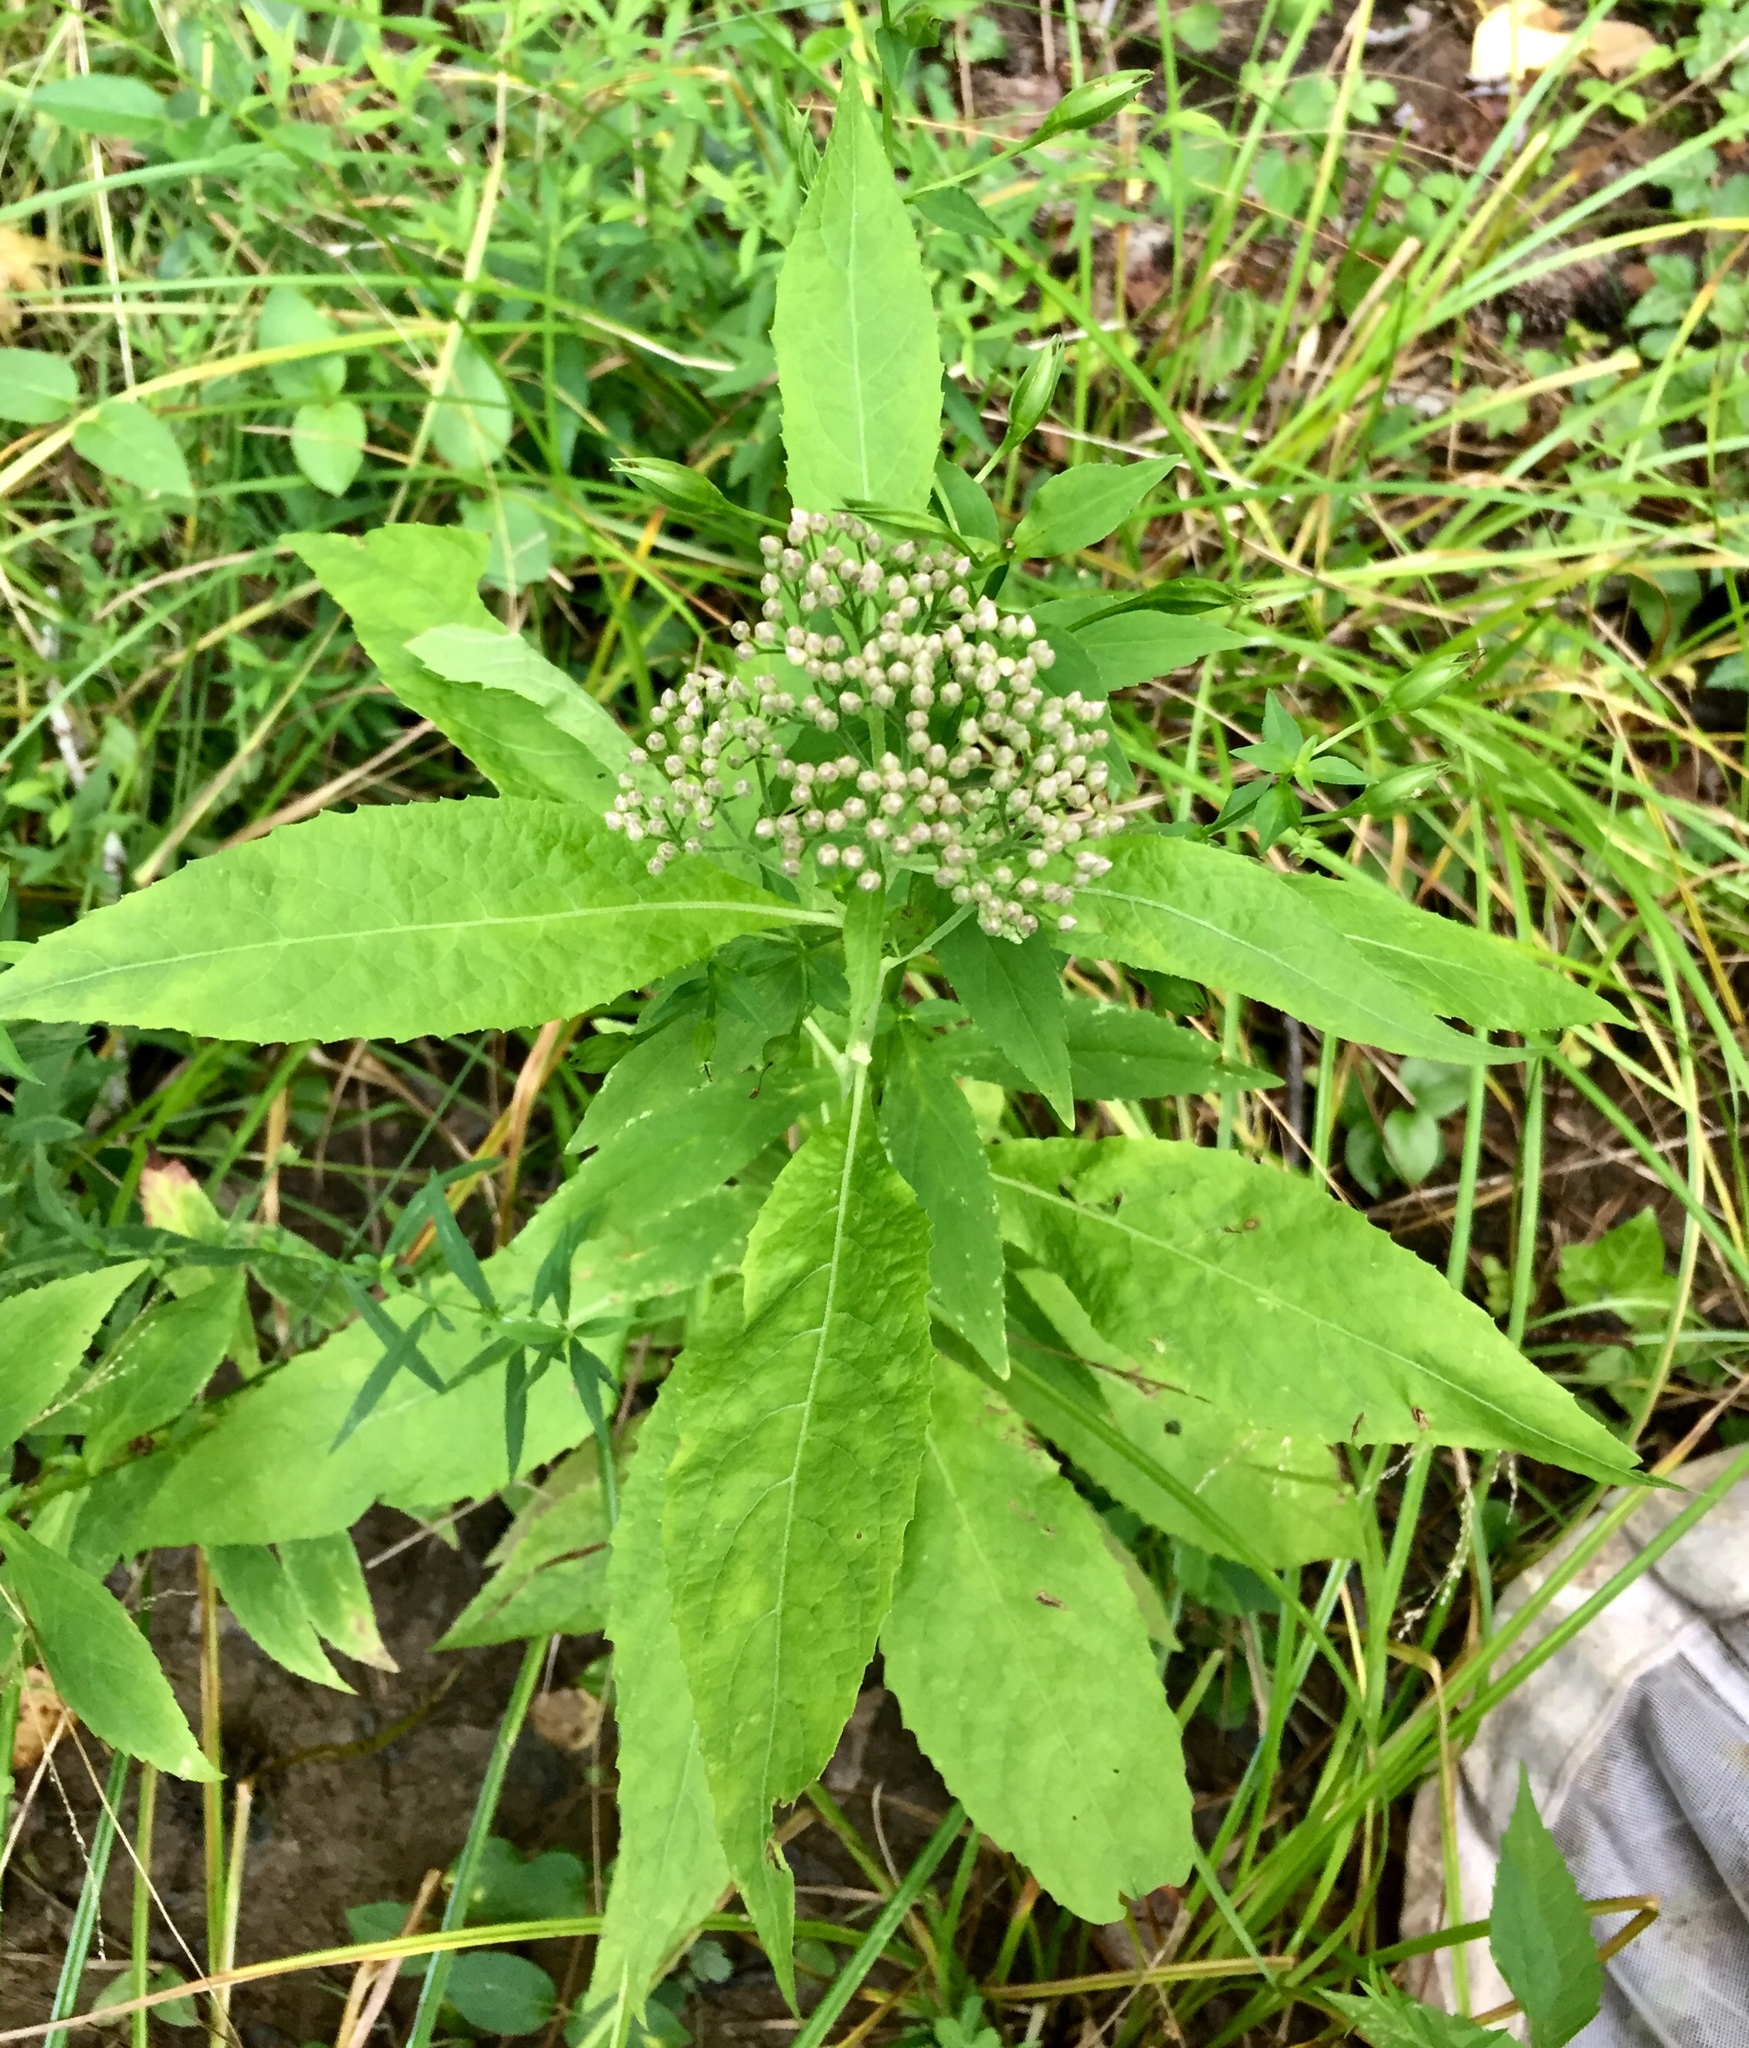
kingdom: Plantae
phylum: Tracheophyta
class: Magnoliopsida
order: Asterales
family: Asteraceae
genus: Pluchea
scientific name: Pluchea camphorata
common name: Camphor pluchea
